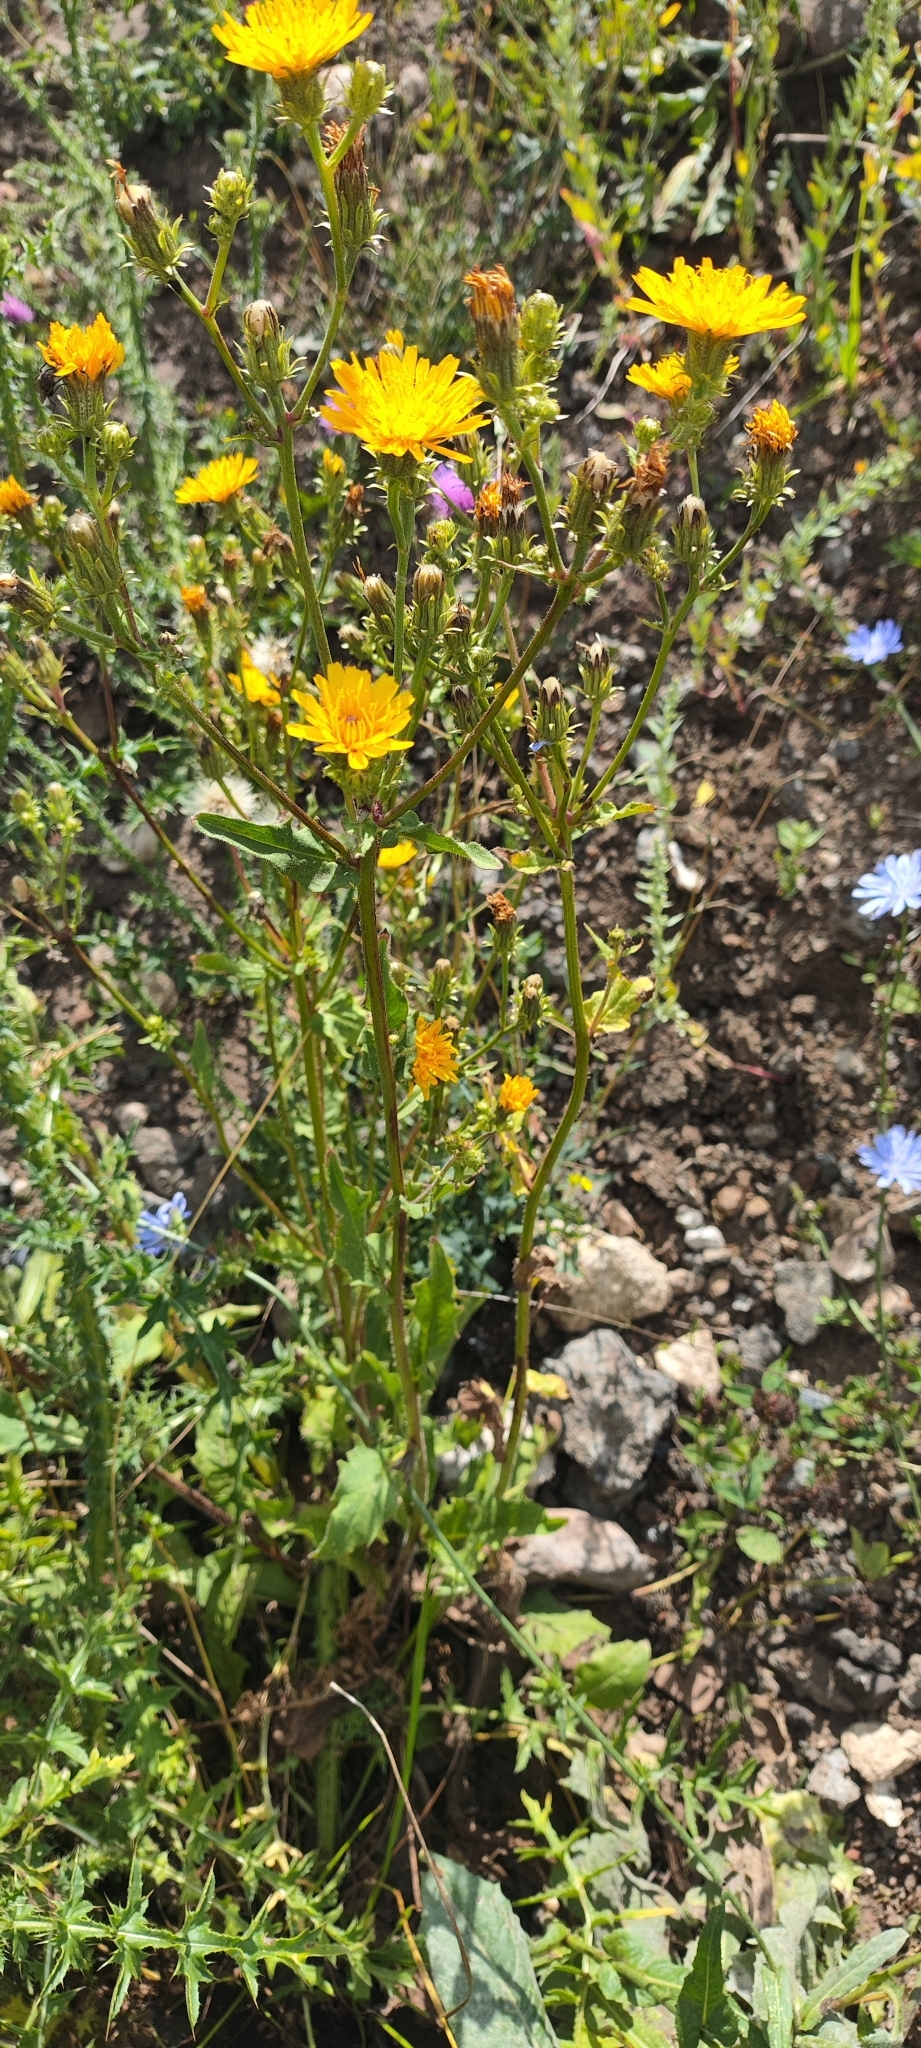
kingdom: Plantae
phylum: Tracheophyta
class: Magnoliopsida
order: Asterales
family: Asteraceae
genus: Picris
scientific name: Picris hieracioides
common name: Hawkweed oxtongue
